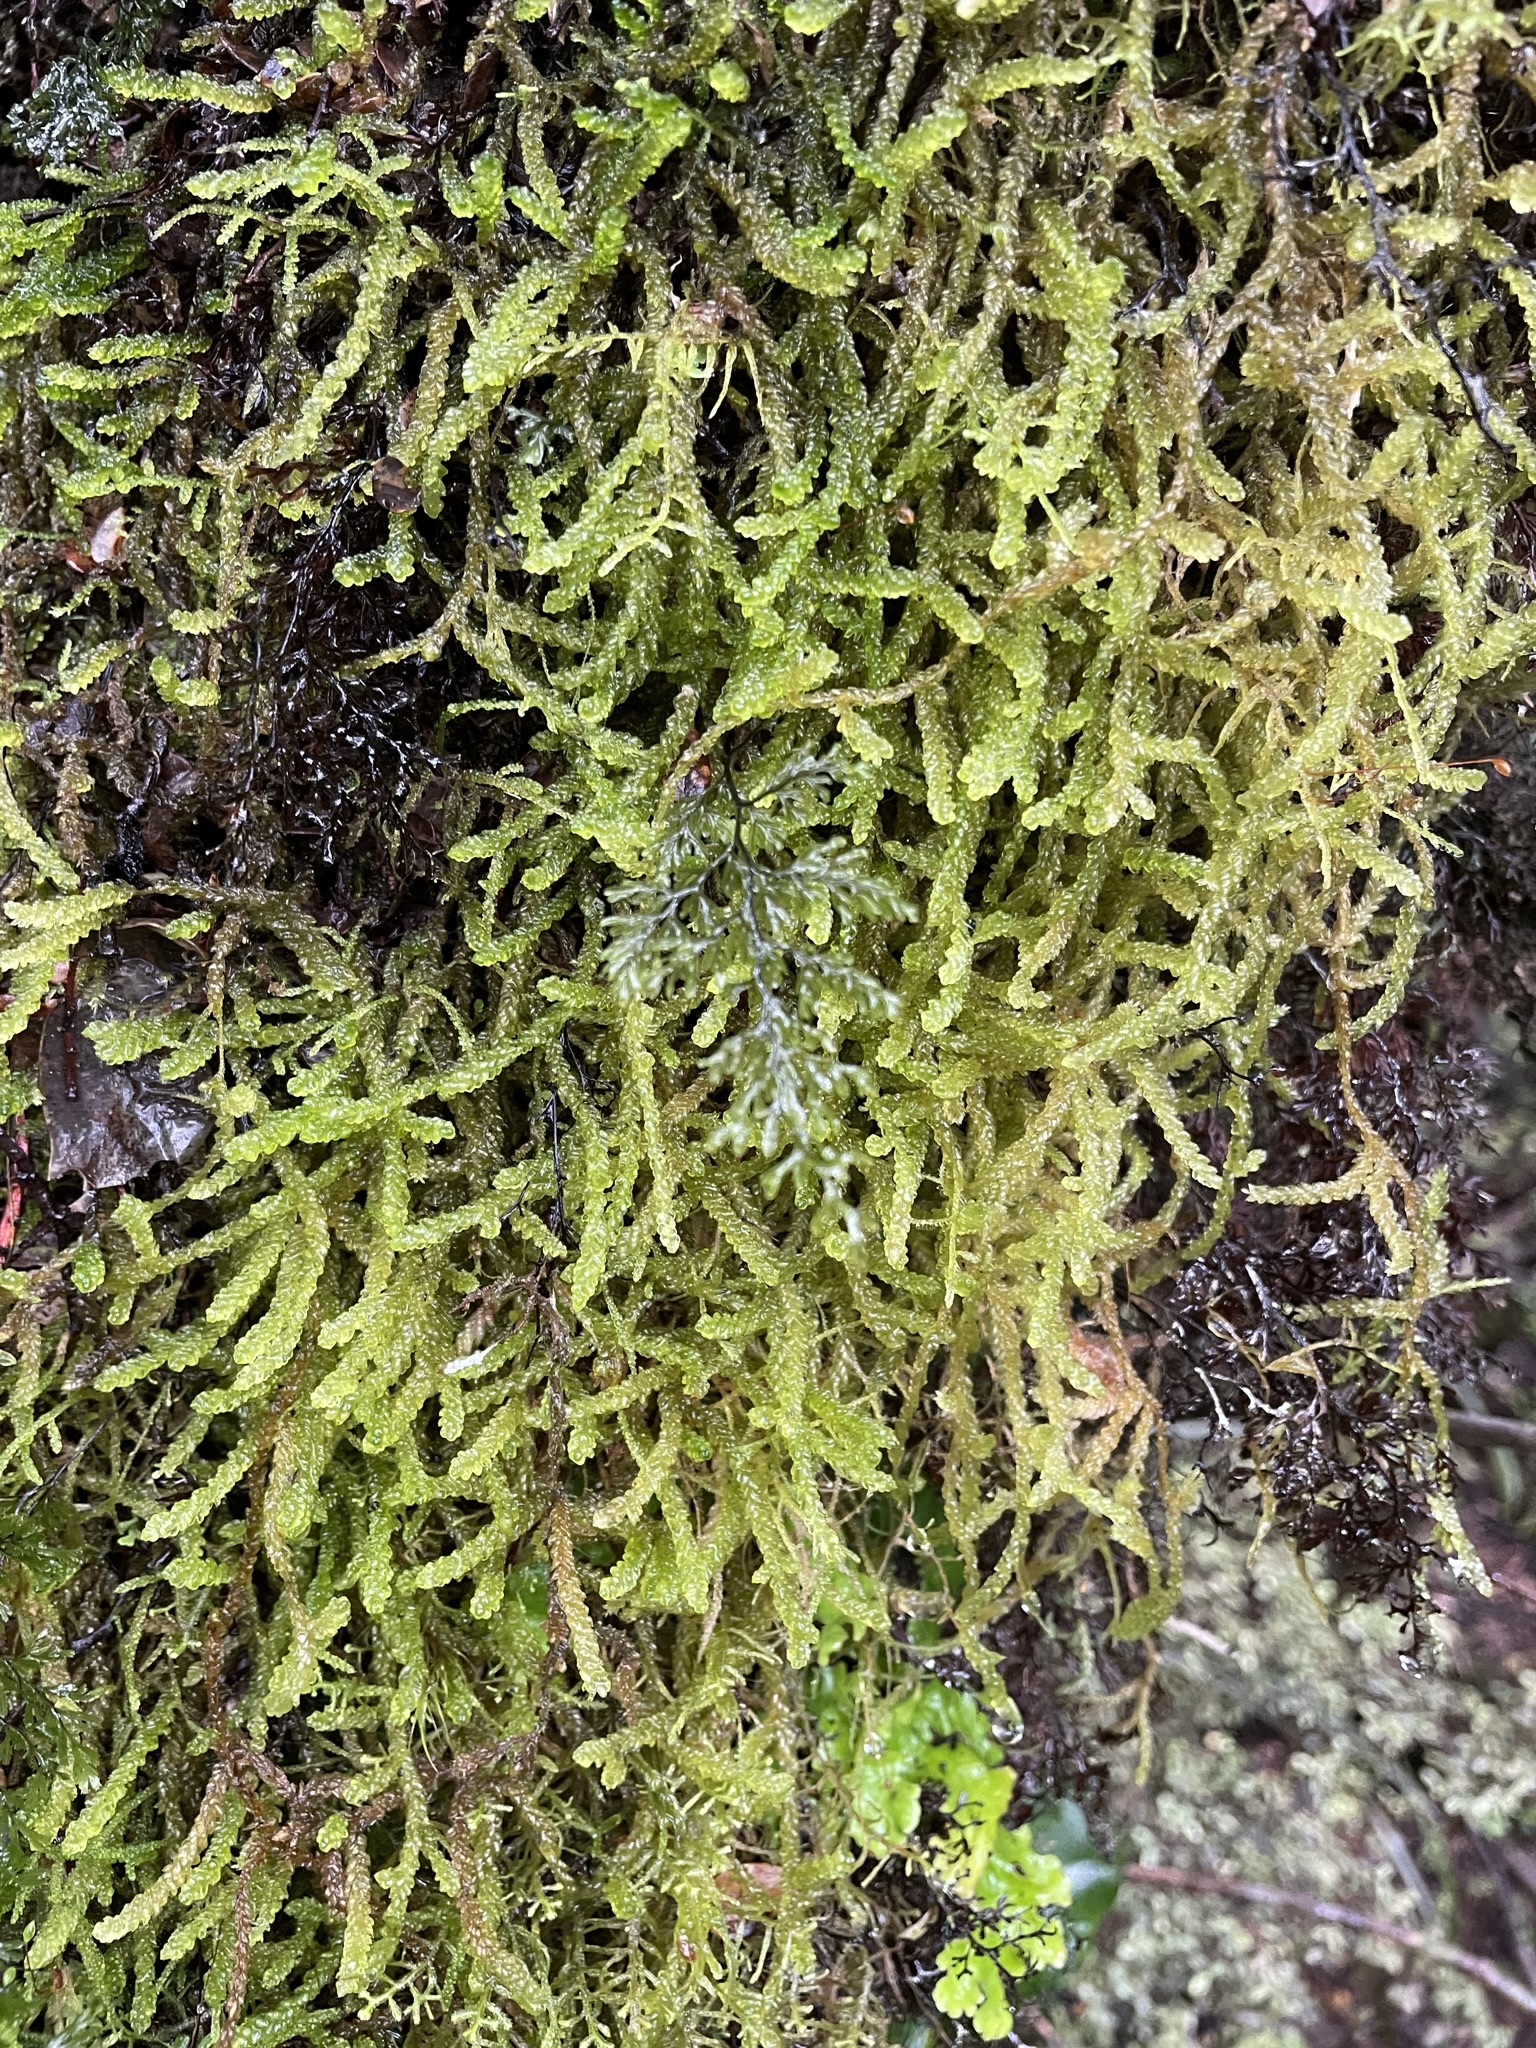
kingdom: Plantae
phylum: Bryophyta
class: Bryopsida
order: Hypnales
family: Lembophyllaceae
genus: Weymouthia
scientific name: Weymouthia cochlearifolia
